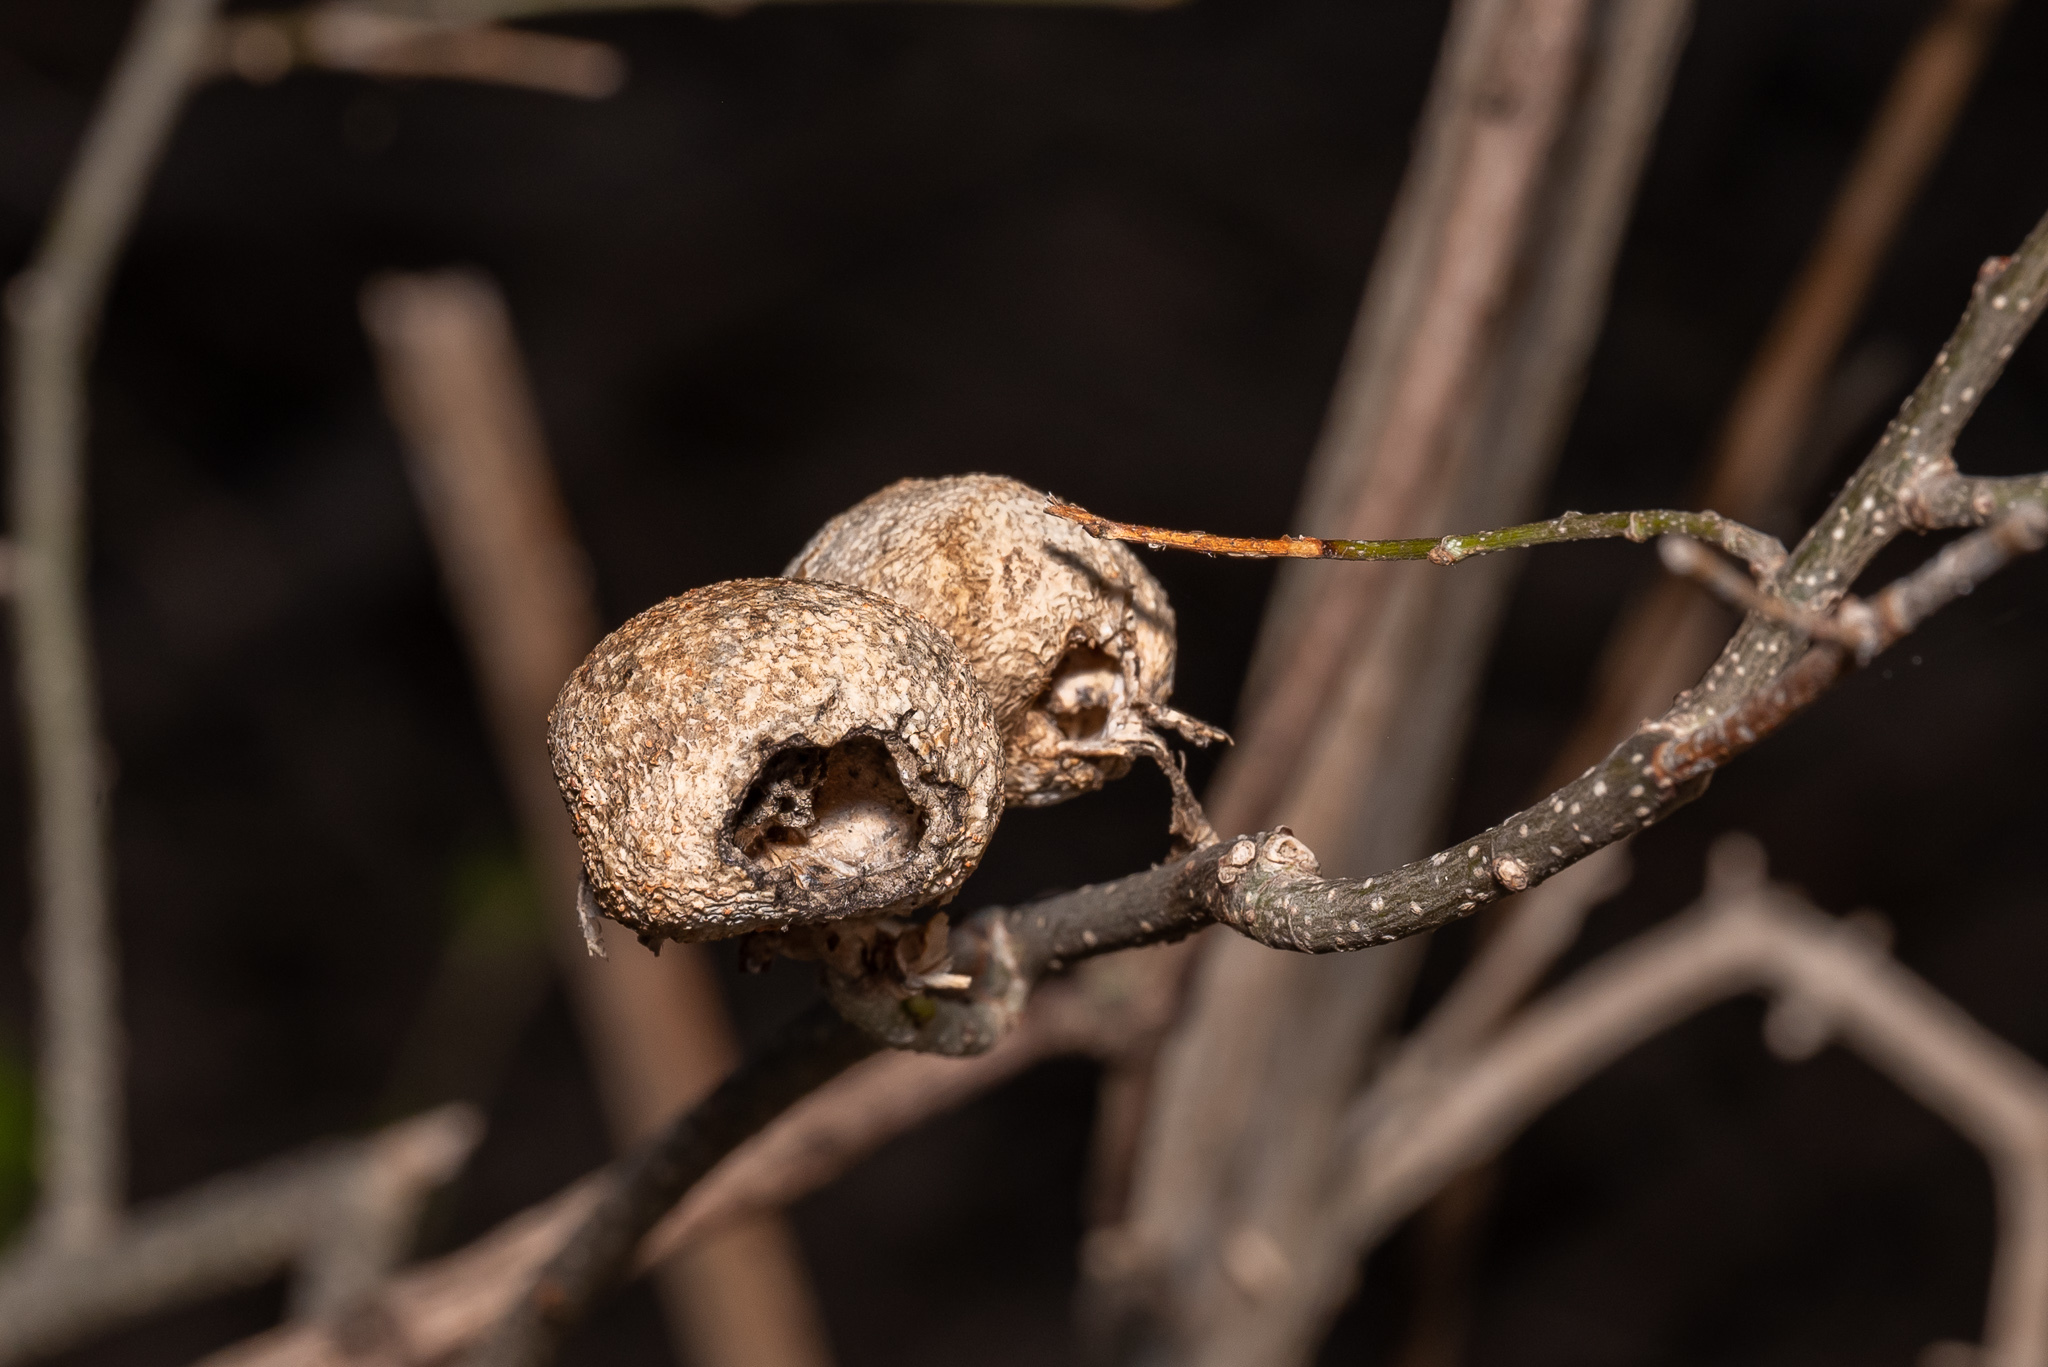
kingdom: Animalia
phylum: Arthropoda
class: Insecta
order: Hemiptera
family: Aphalaridae
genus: Pachypsylla
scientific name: Pachypsylla venusta
